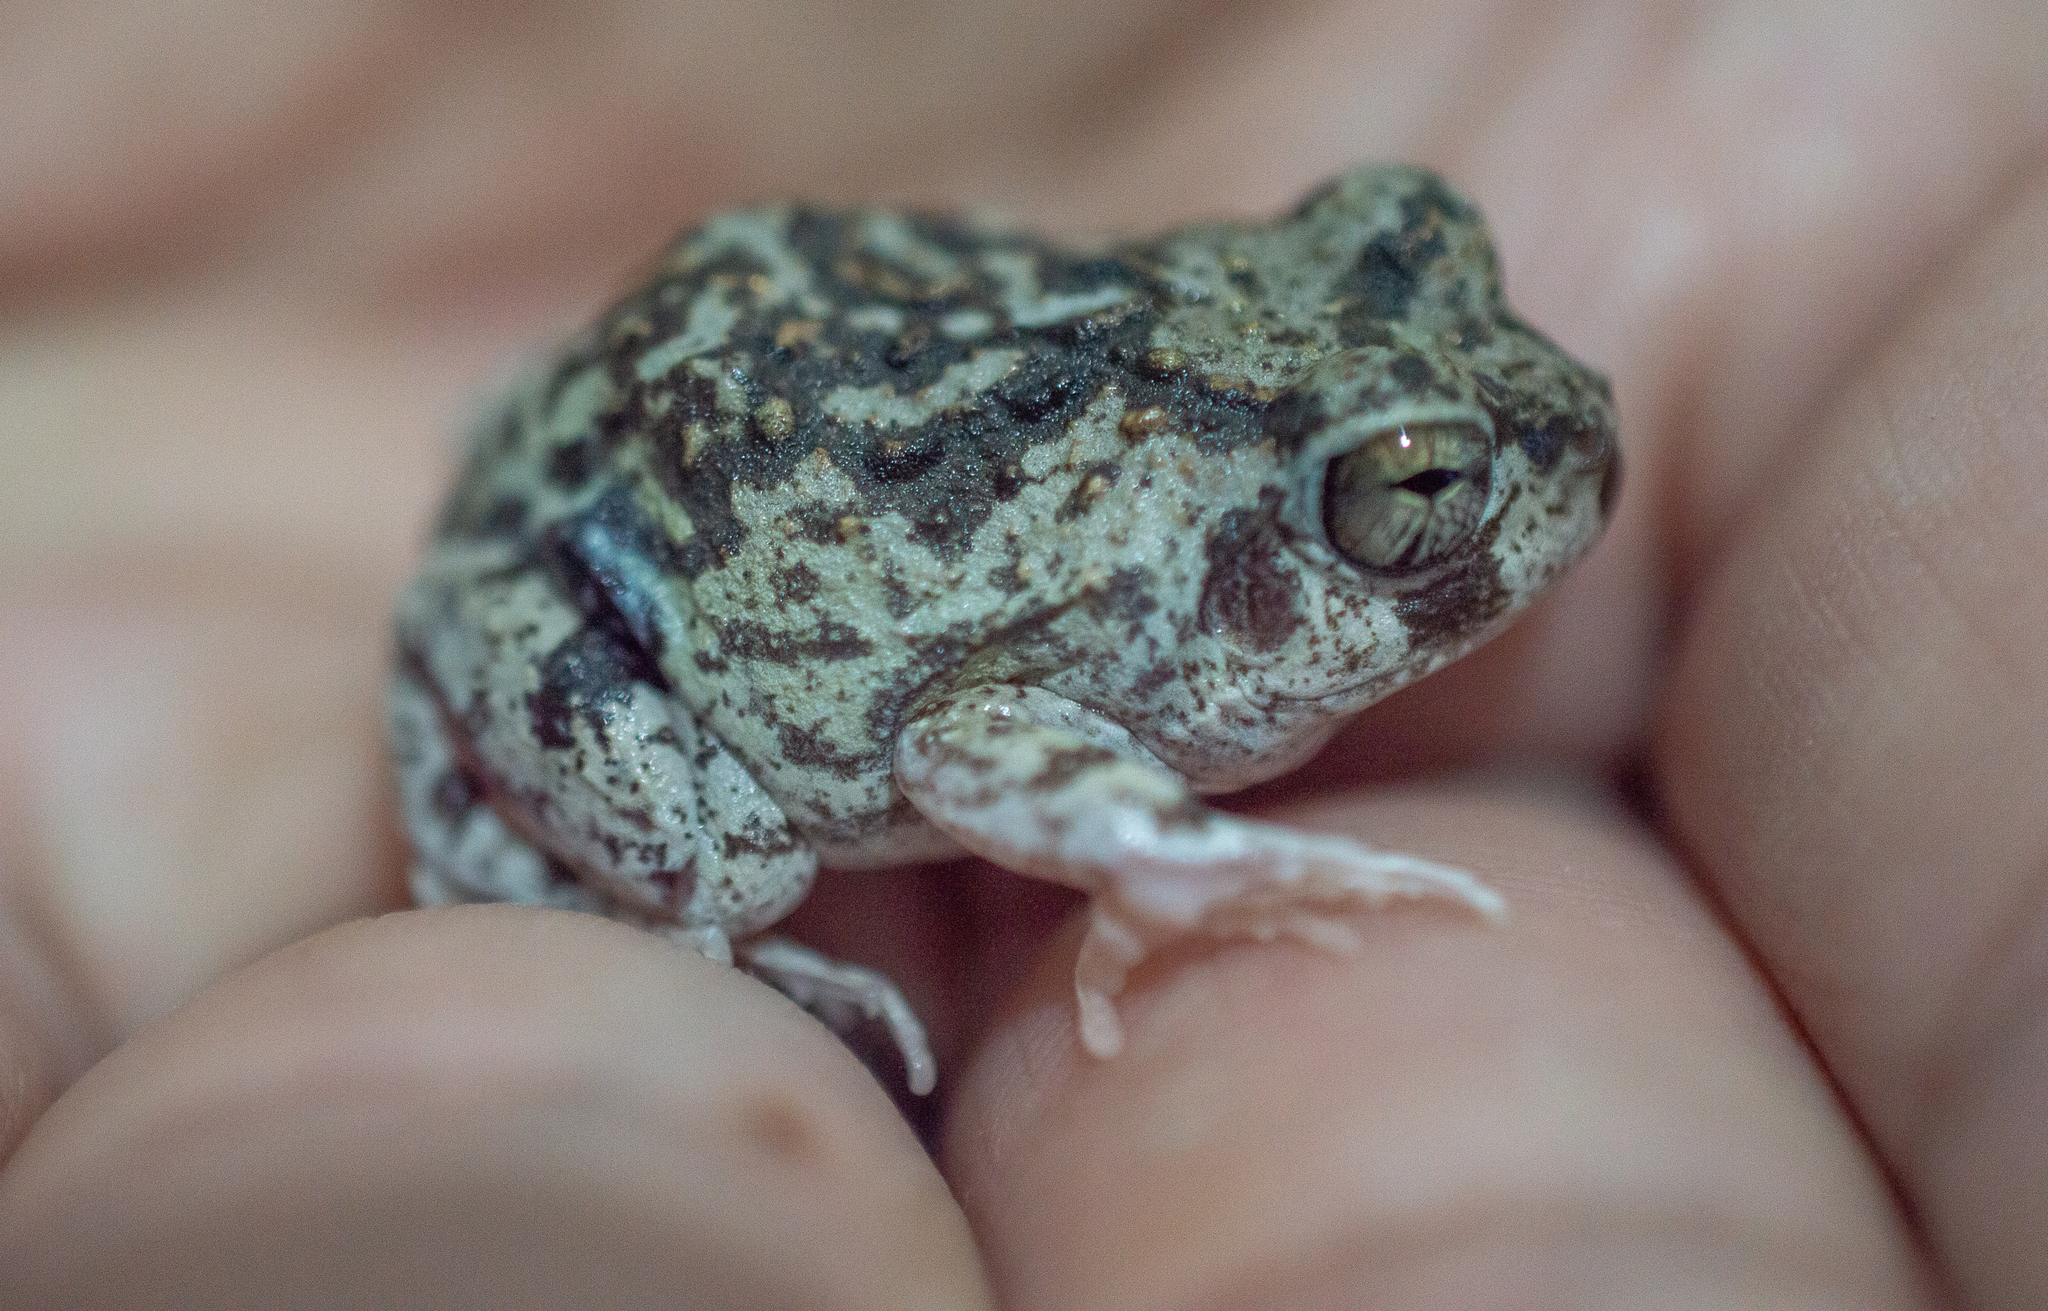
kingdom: Animalia
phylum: Chordata
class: Amphibia
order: Anura
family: Leptodactylidae
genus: Pleurodema
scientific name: Pleurodema brachyops
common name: Colombian four-eyed frog
